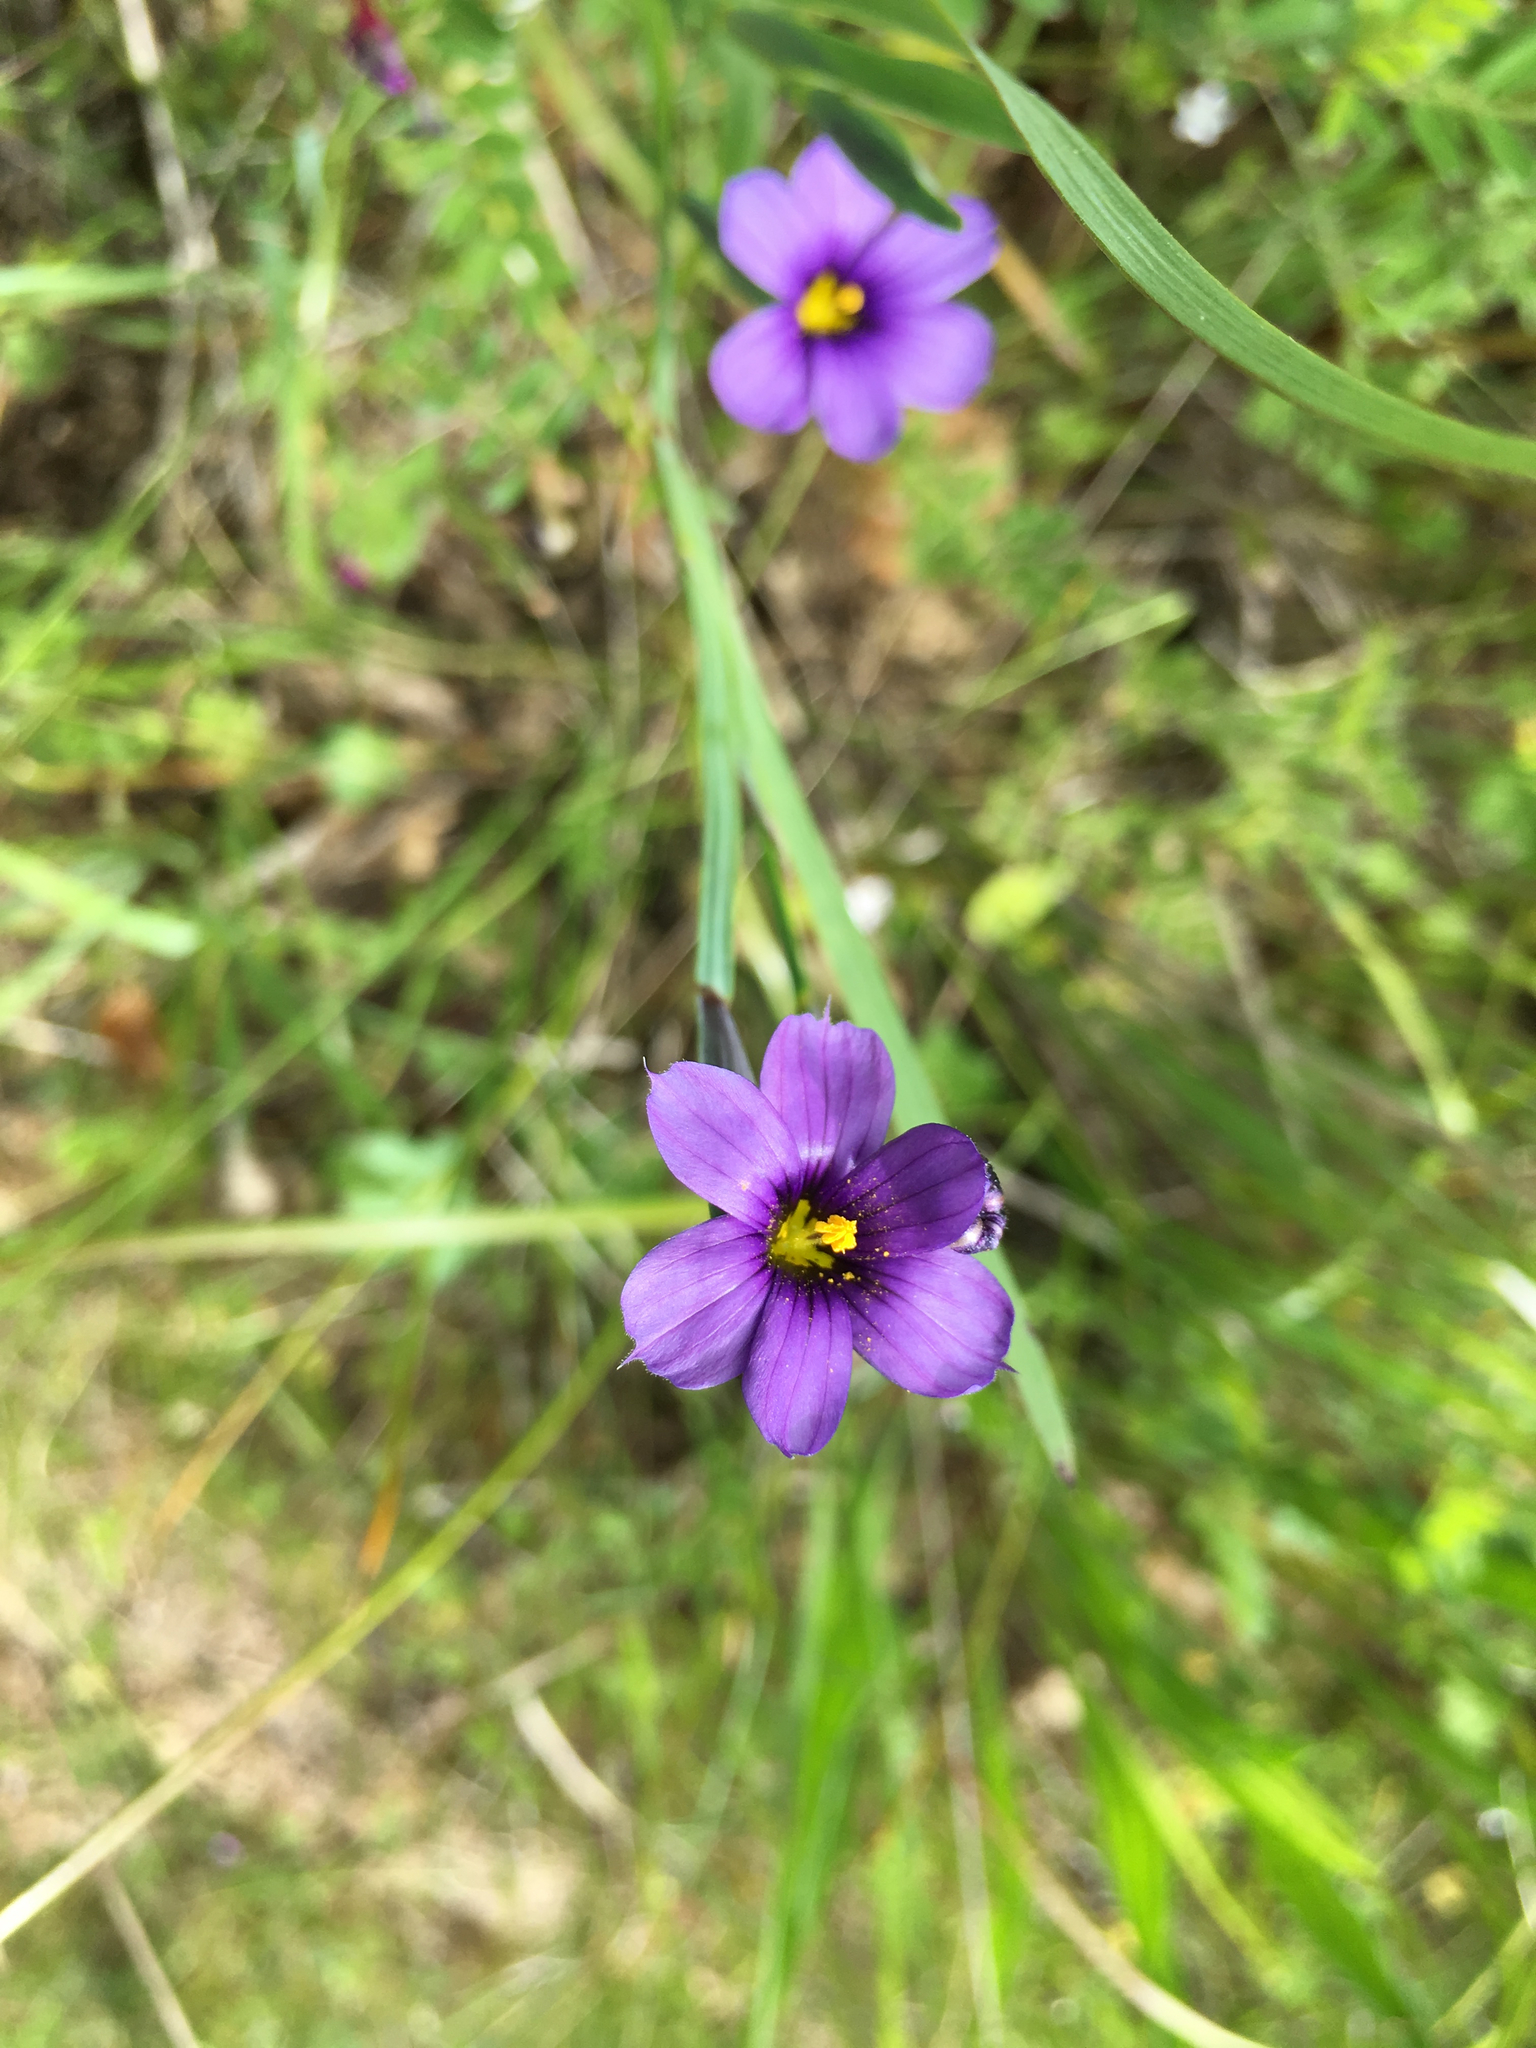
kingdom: Plantae
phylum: Tracheophyta
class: Liliopsida
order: Asparagales
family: Iridaceae
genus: Sisyrinchium
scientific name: Sisyrinchium bellum
